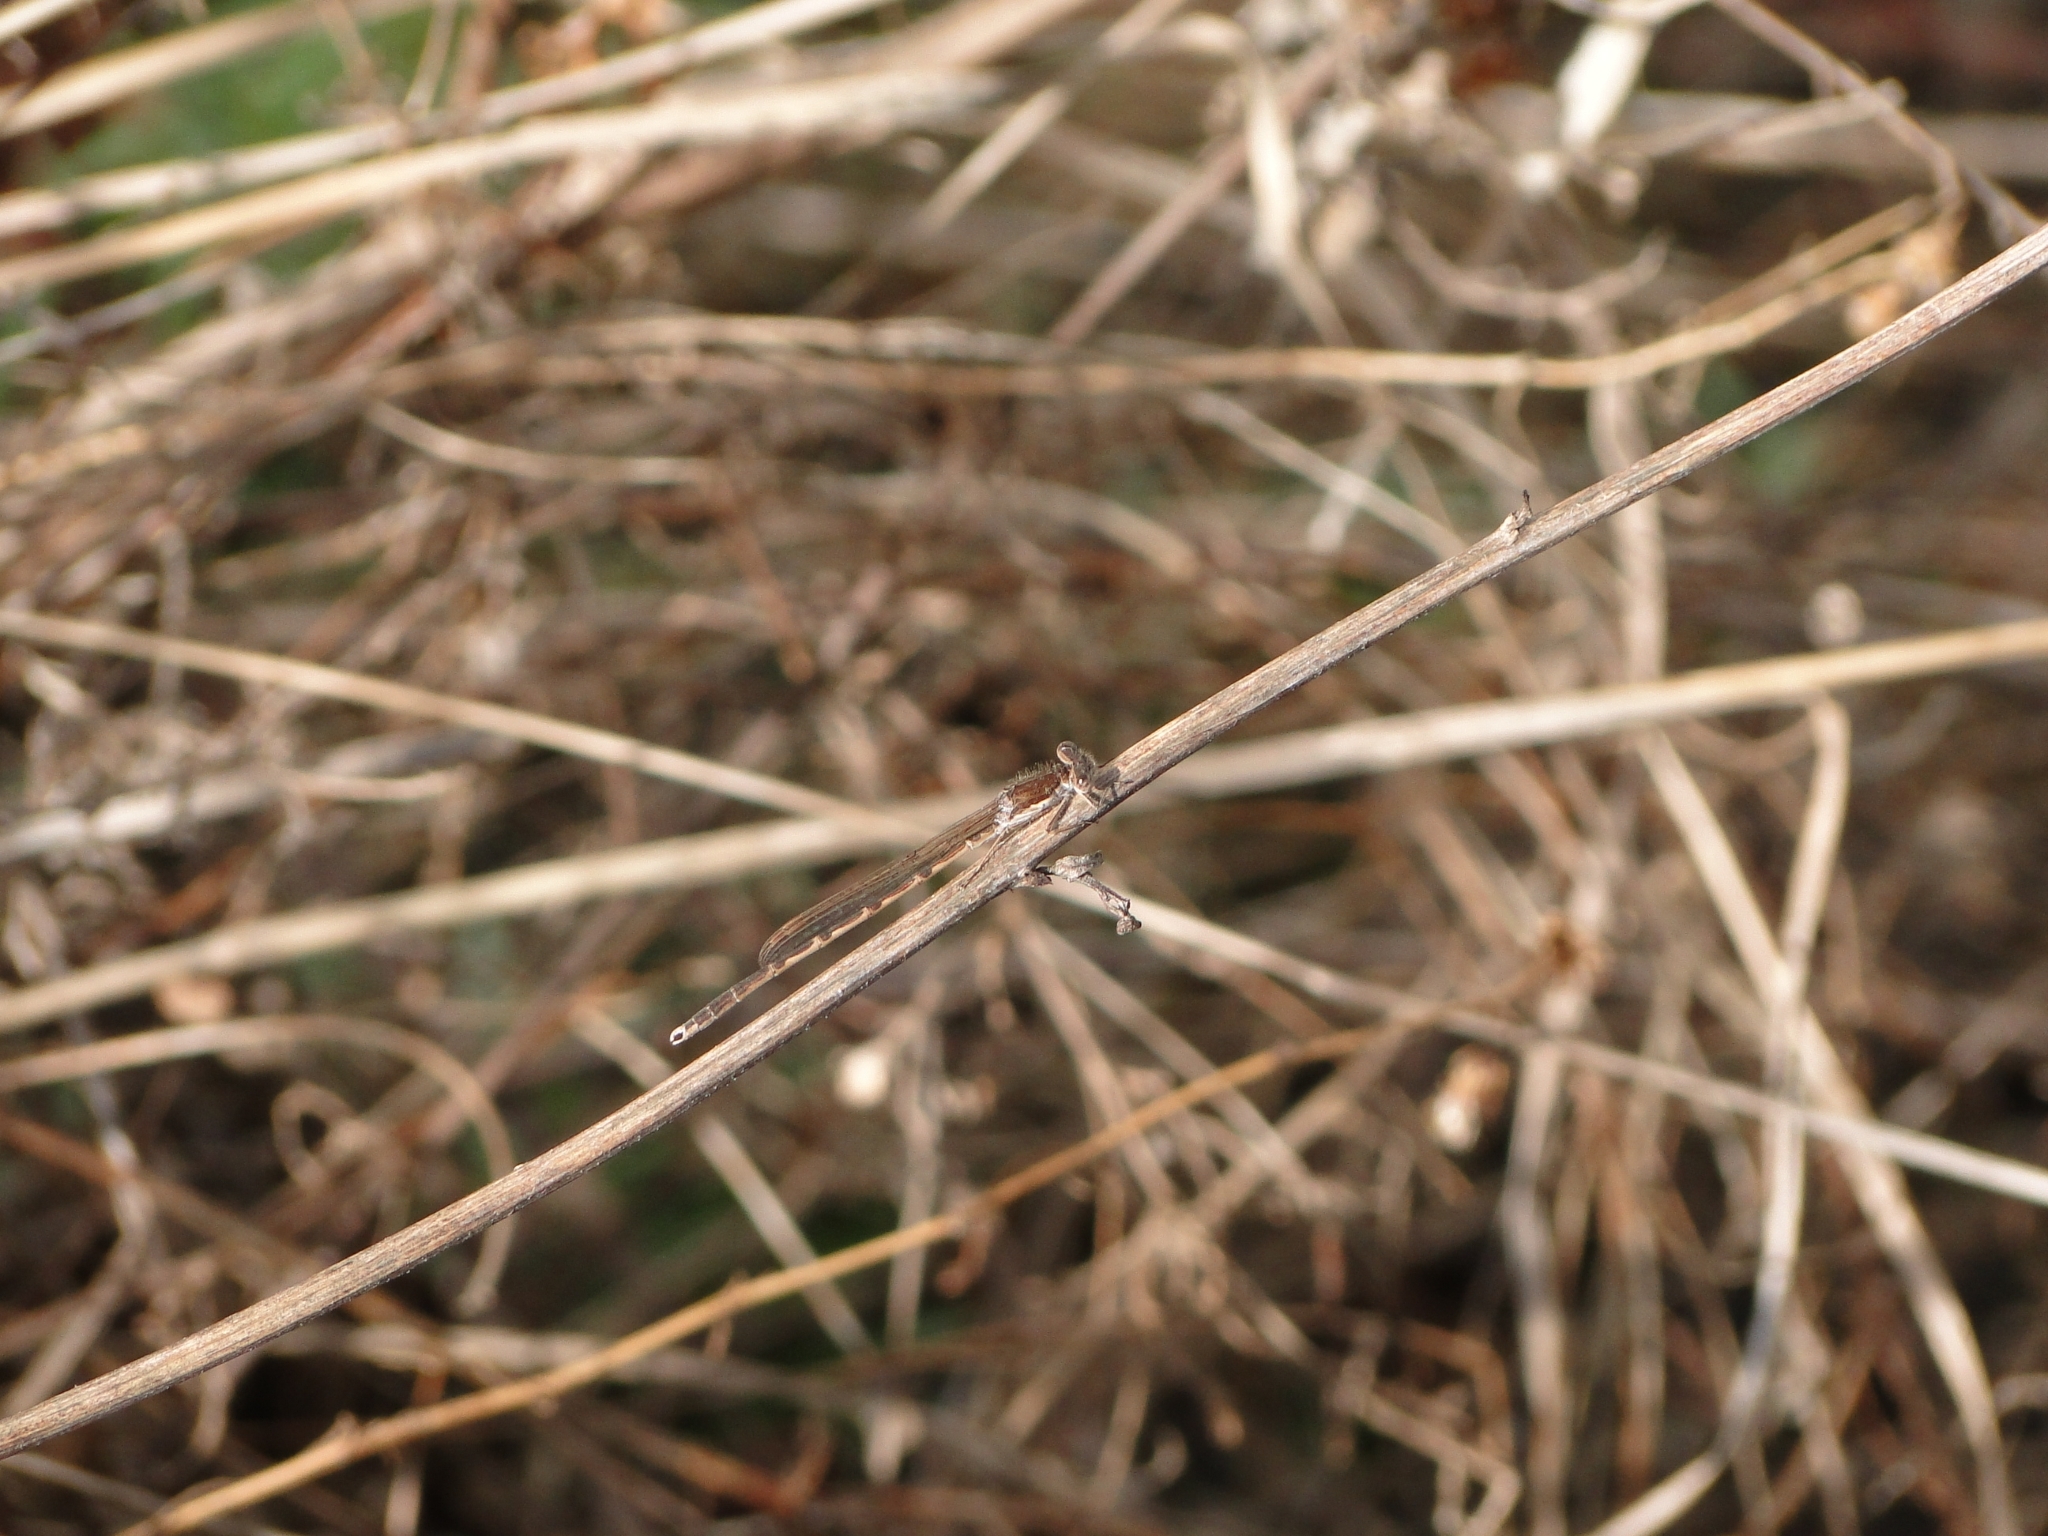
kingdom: Animalia
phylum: Arthropoda
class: Insecta
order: Odonata
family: Lestidae
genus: Sympecma
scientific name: Sympecma fusca
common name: Common winter damsel
